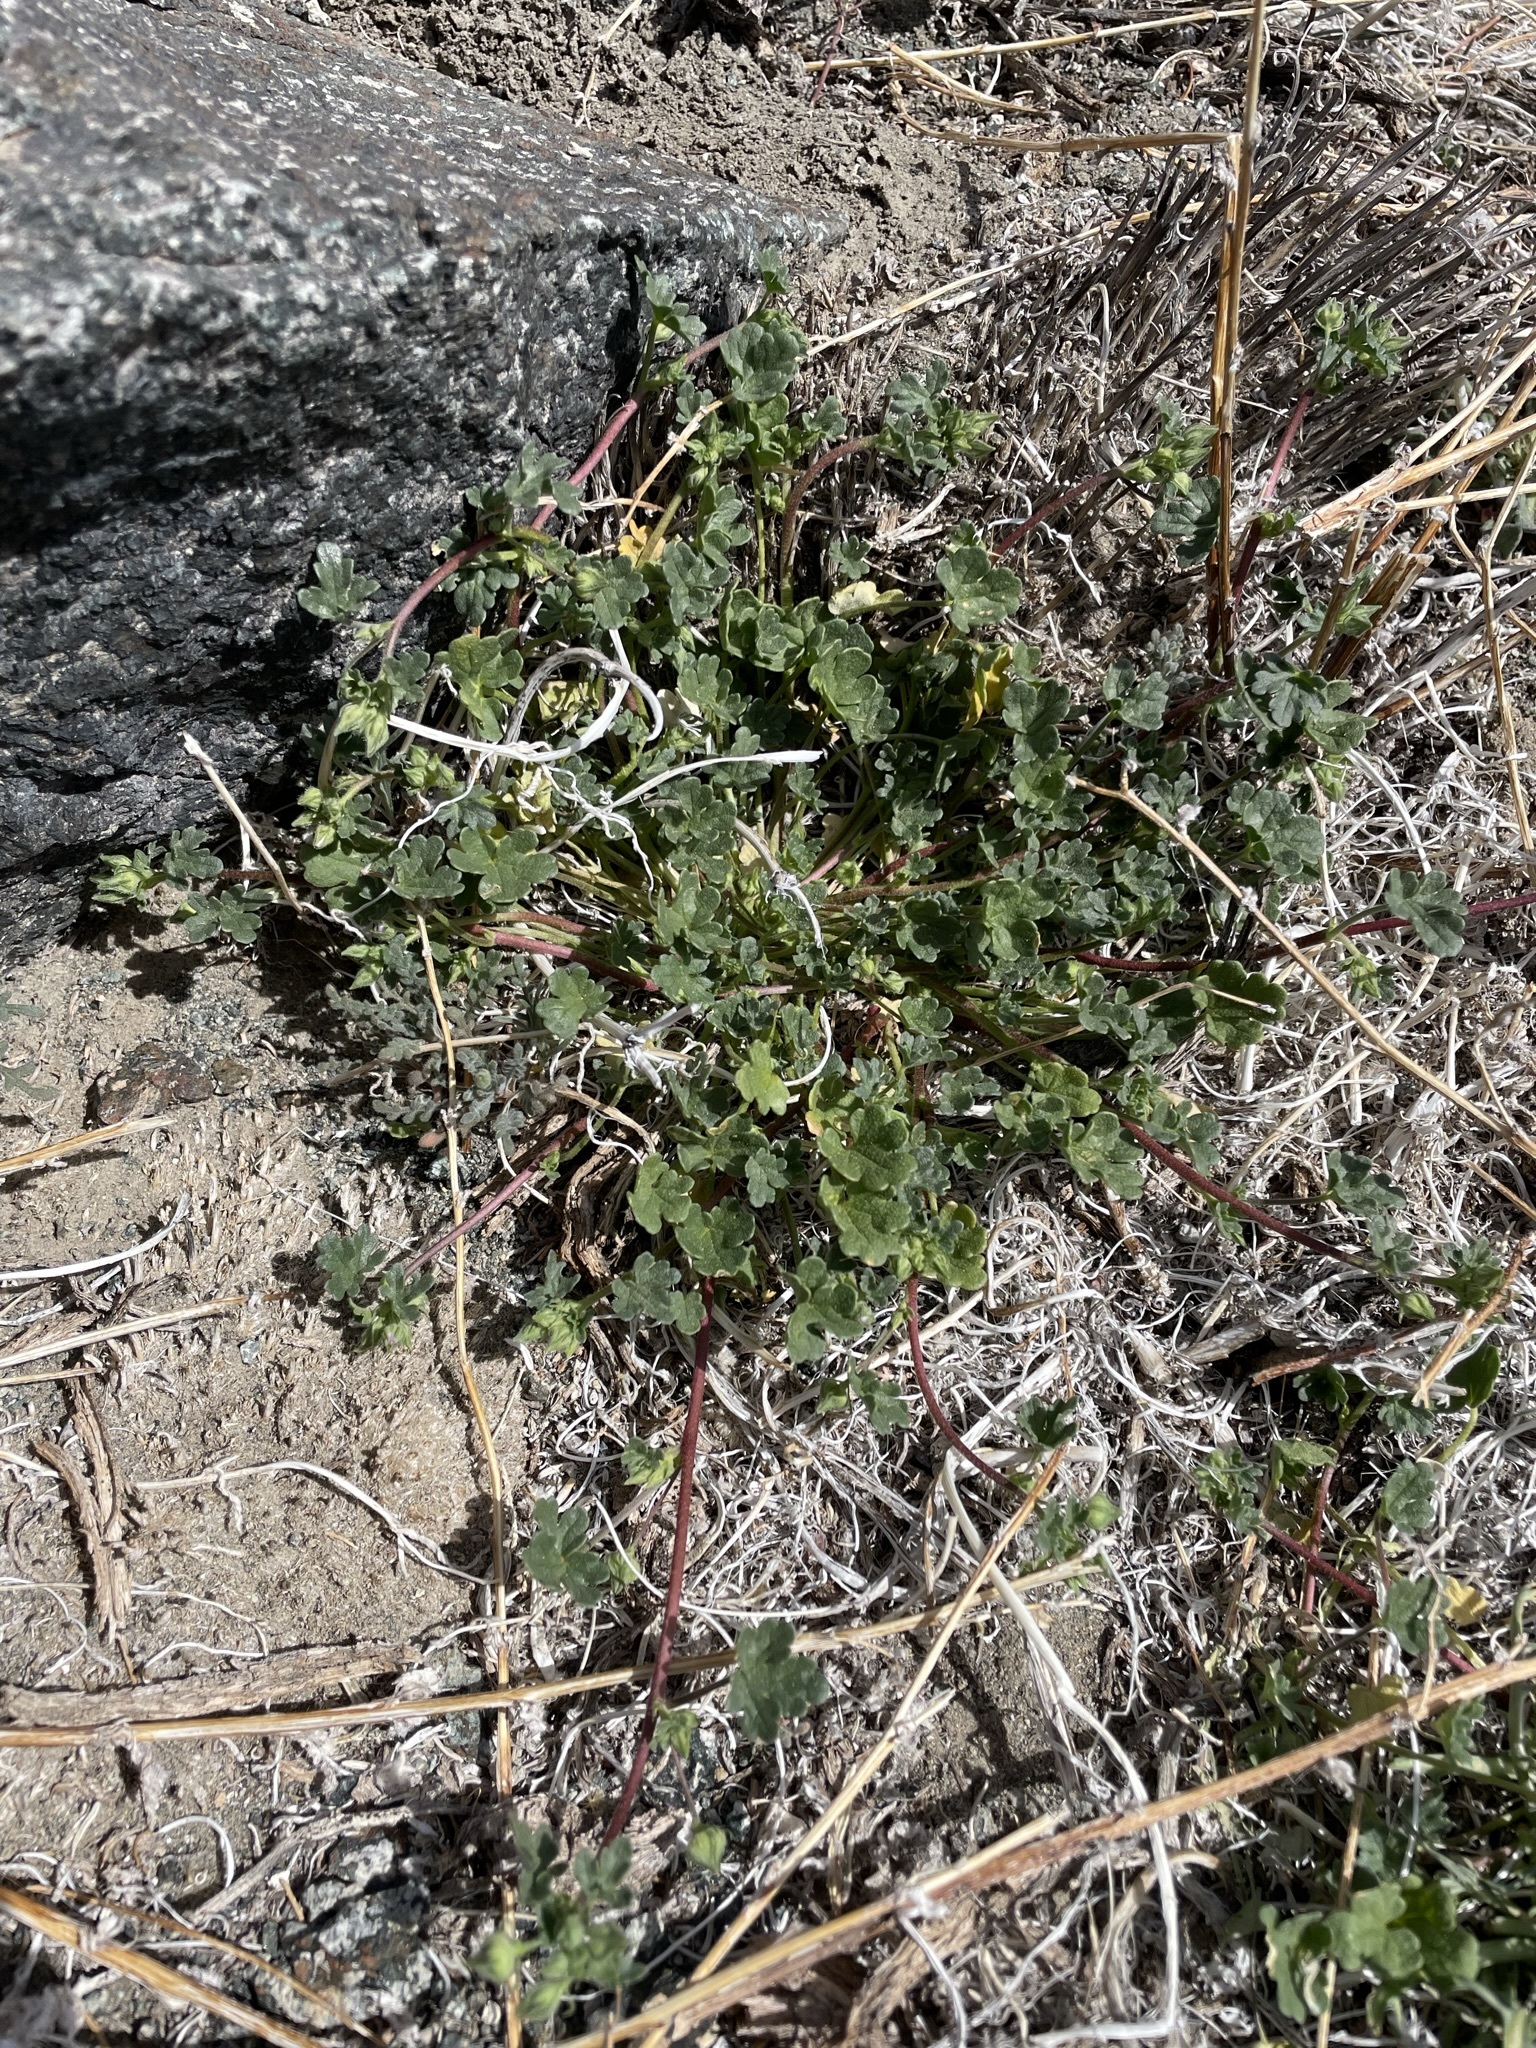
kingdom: Plantae
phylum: Tracheophyta
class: Magnoliopsida
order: Malvales
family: Malvaceae
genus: Eremalche
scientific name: Eremalche exilis
